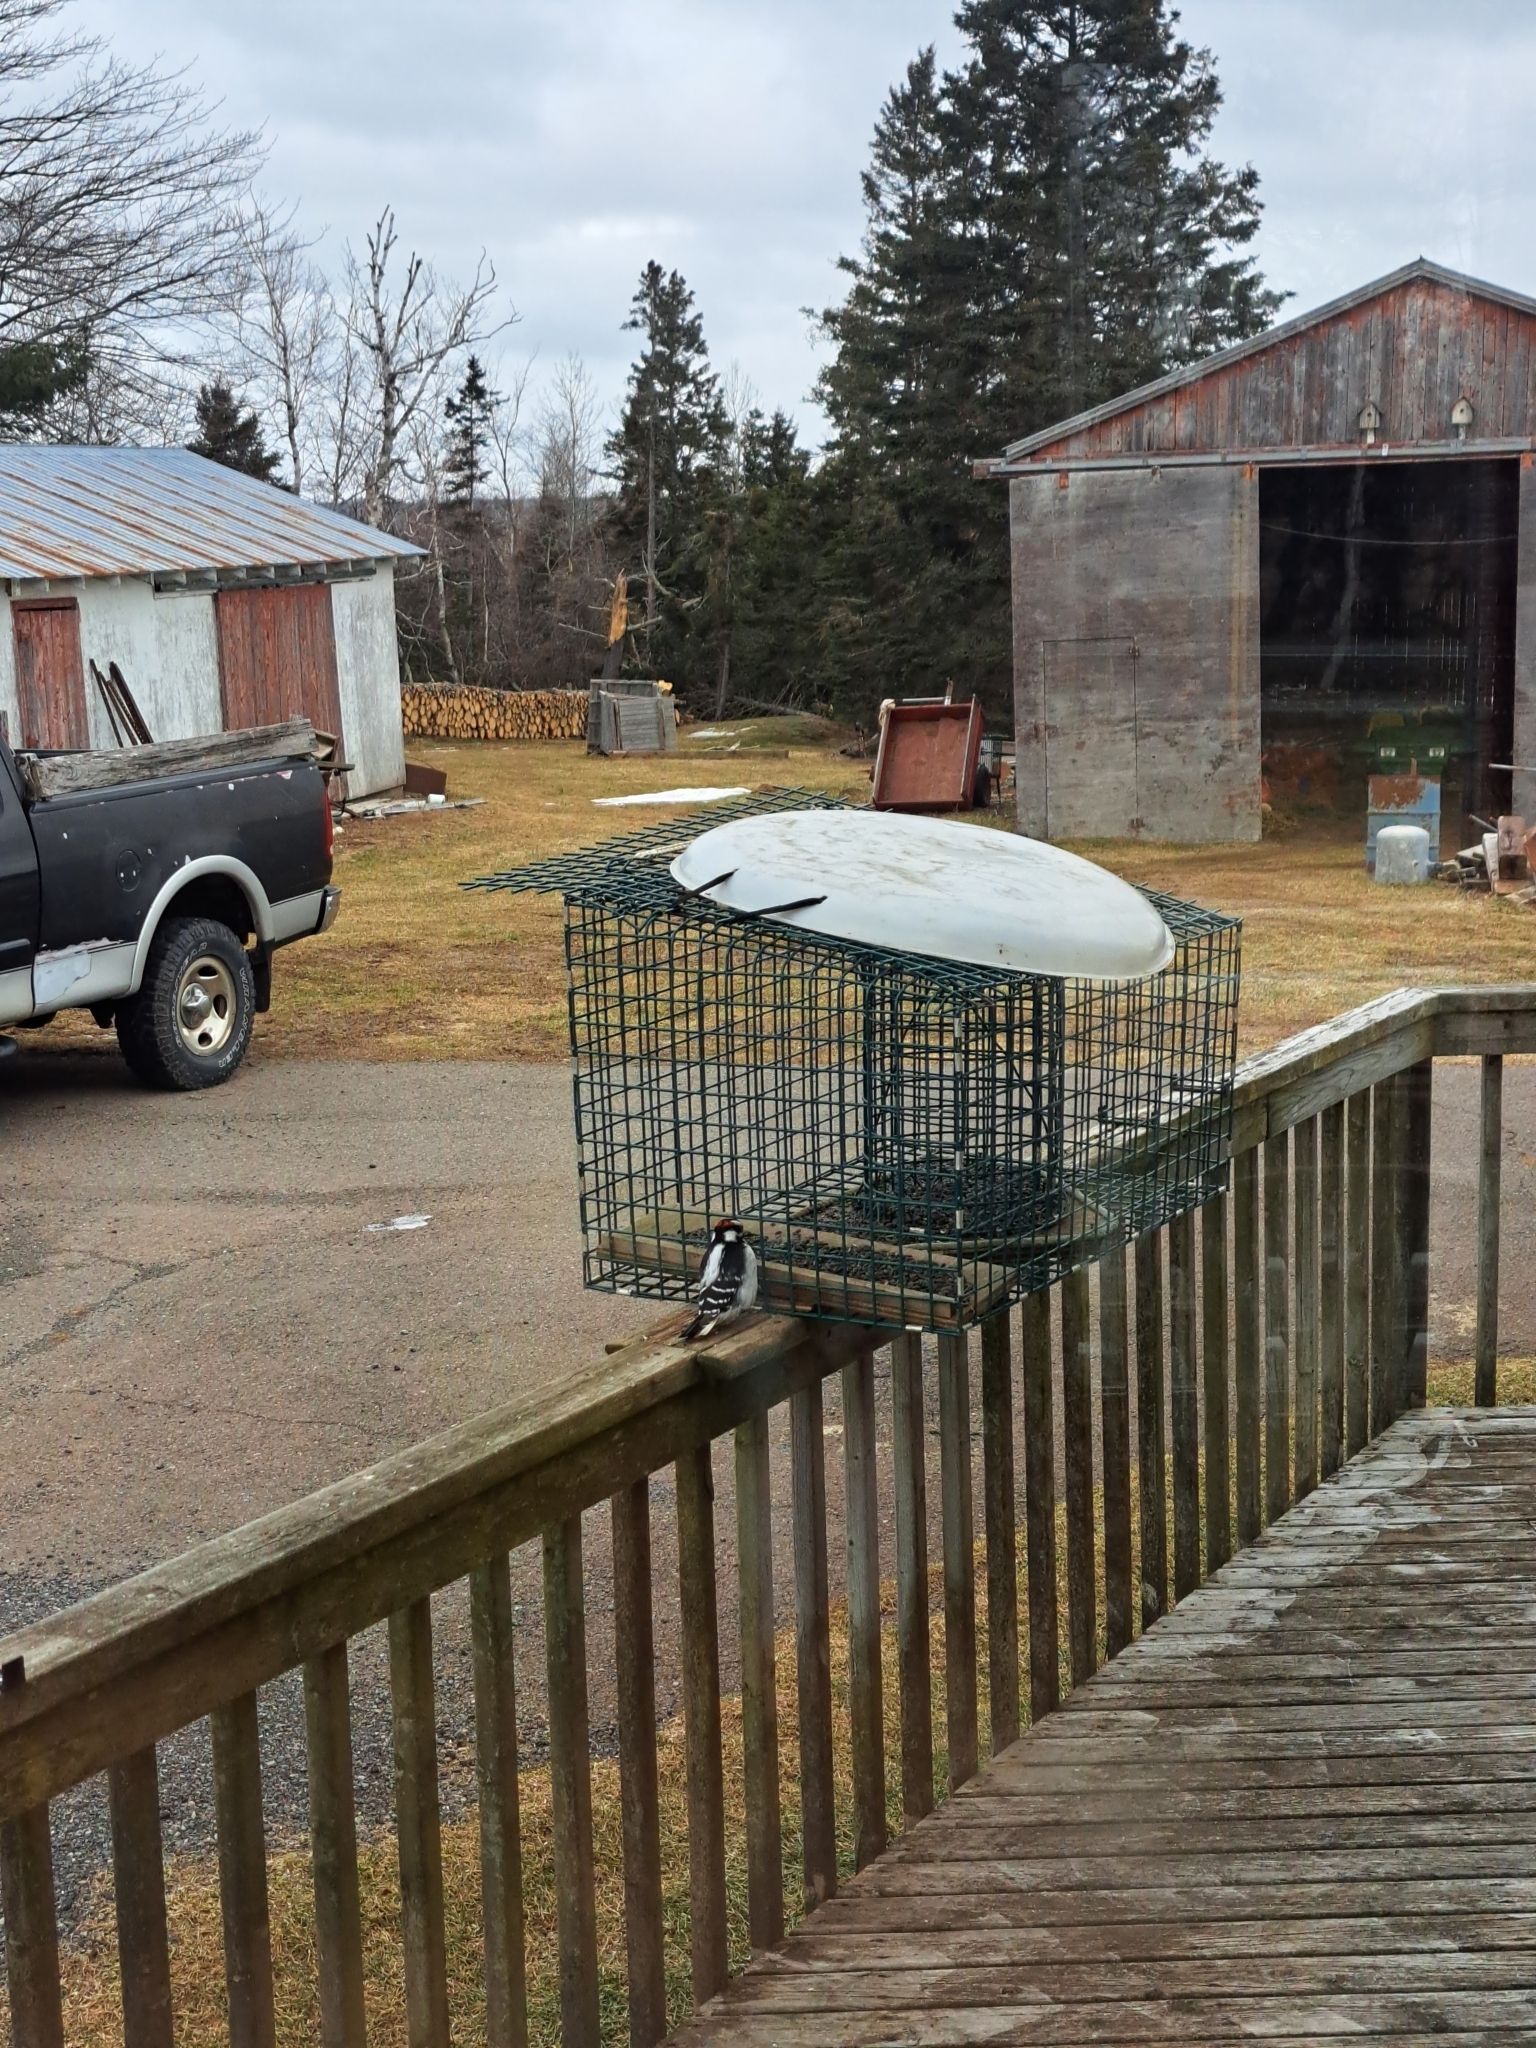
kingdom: Animalia
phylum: Chordata
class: Aves
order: Piciformes
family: Picidae
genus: Dryobates
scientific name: Dryobates pubescens
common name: Downy woodpecker
